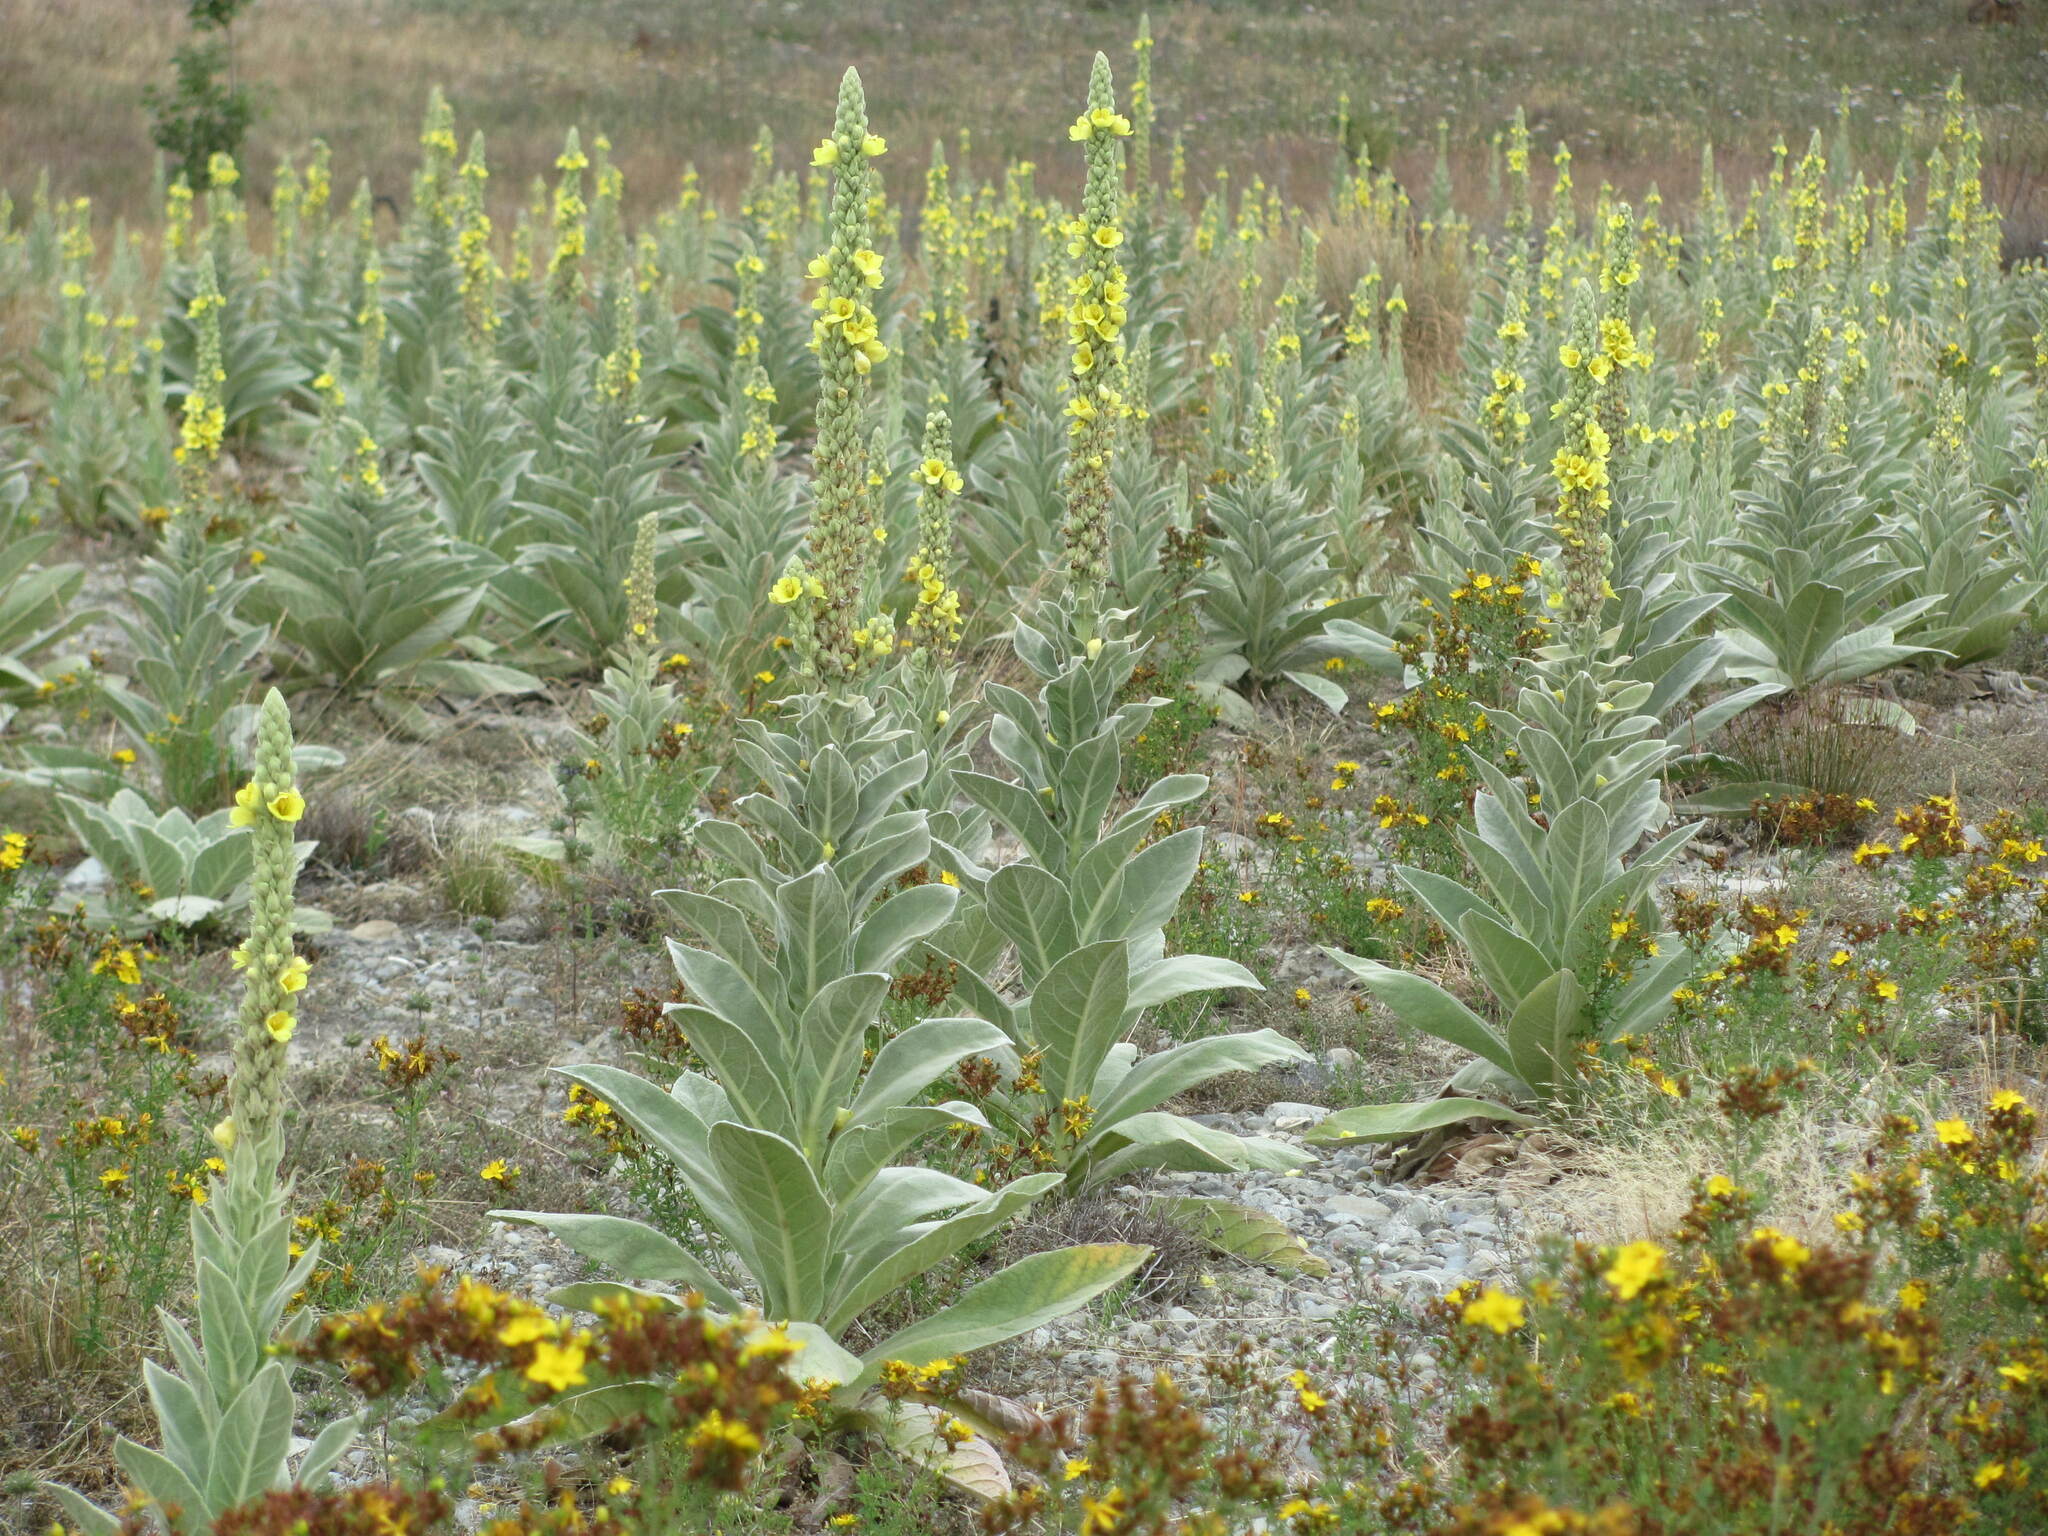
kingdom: Plantae
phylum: Tracheophyta
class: Magnoliopsida
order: Lamiales
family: Scrophulariaceae
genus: Verbascum
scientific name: Verbascum thapsus
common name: Common mullein
